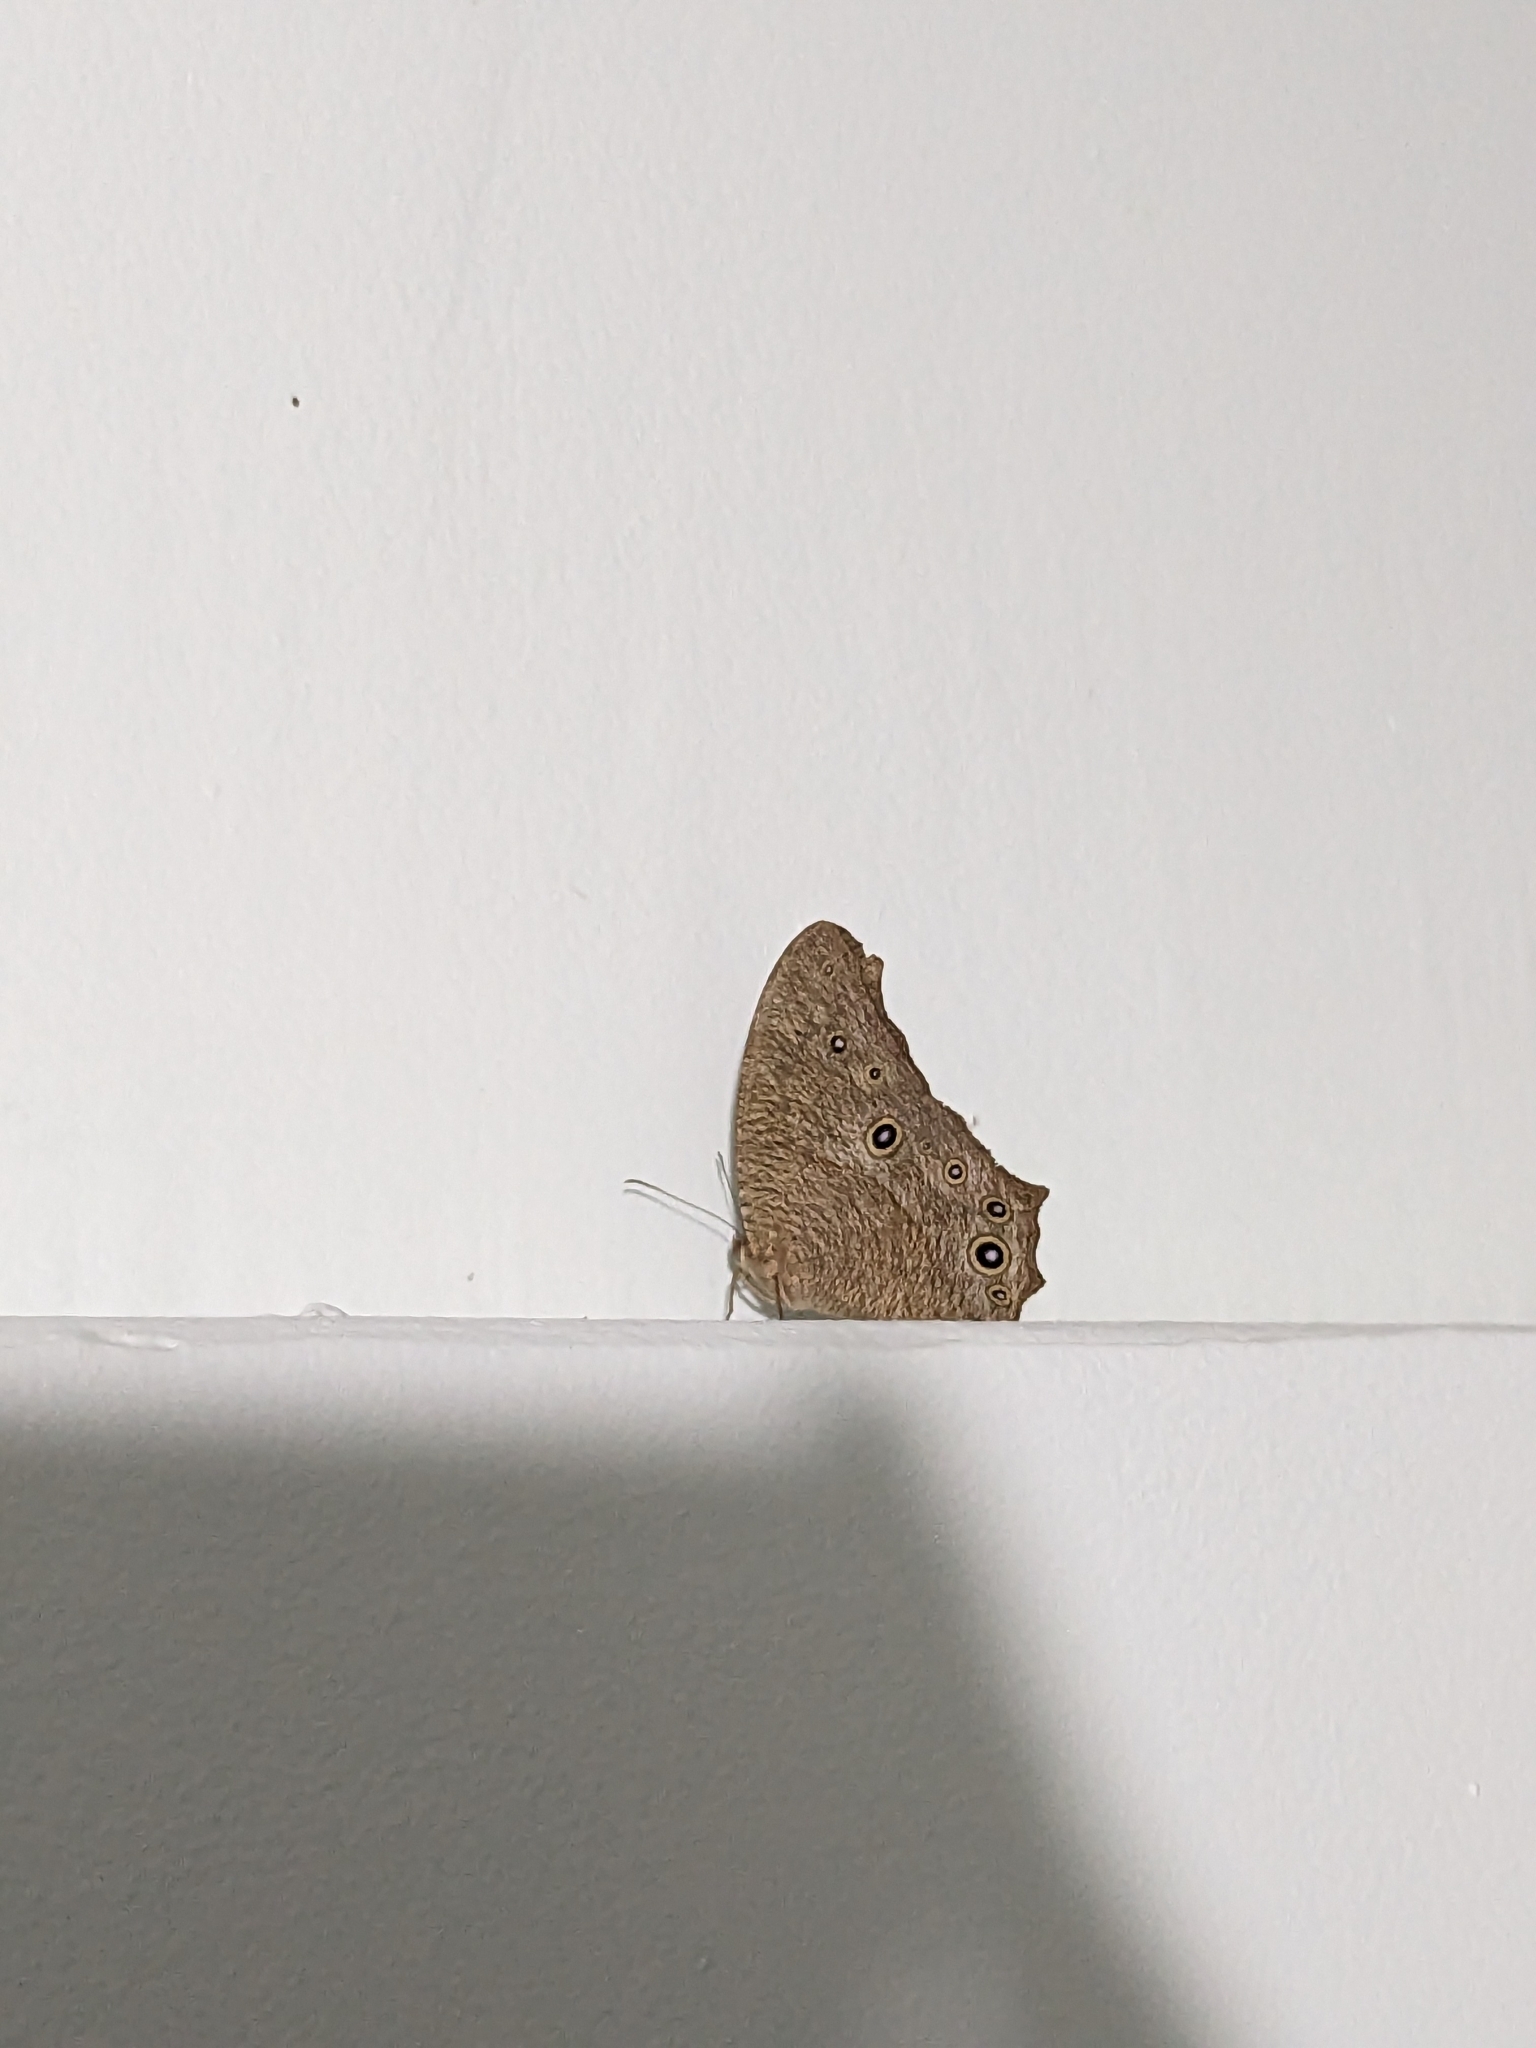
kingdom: Animalia
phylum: Arthropoda
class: Insecta
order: Lepidoptera
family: Nymphalidae
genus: Melanitis
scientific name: Melanitis leda
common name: Twilight brown
